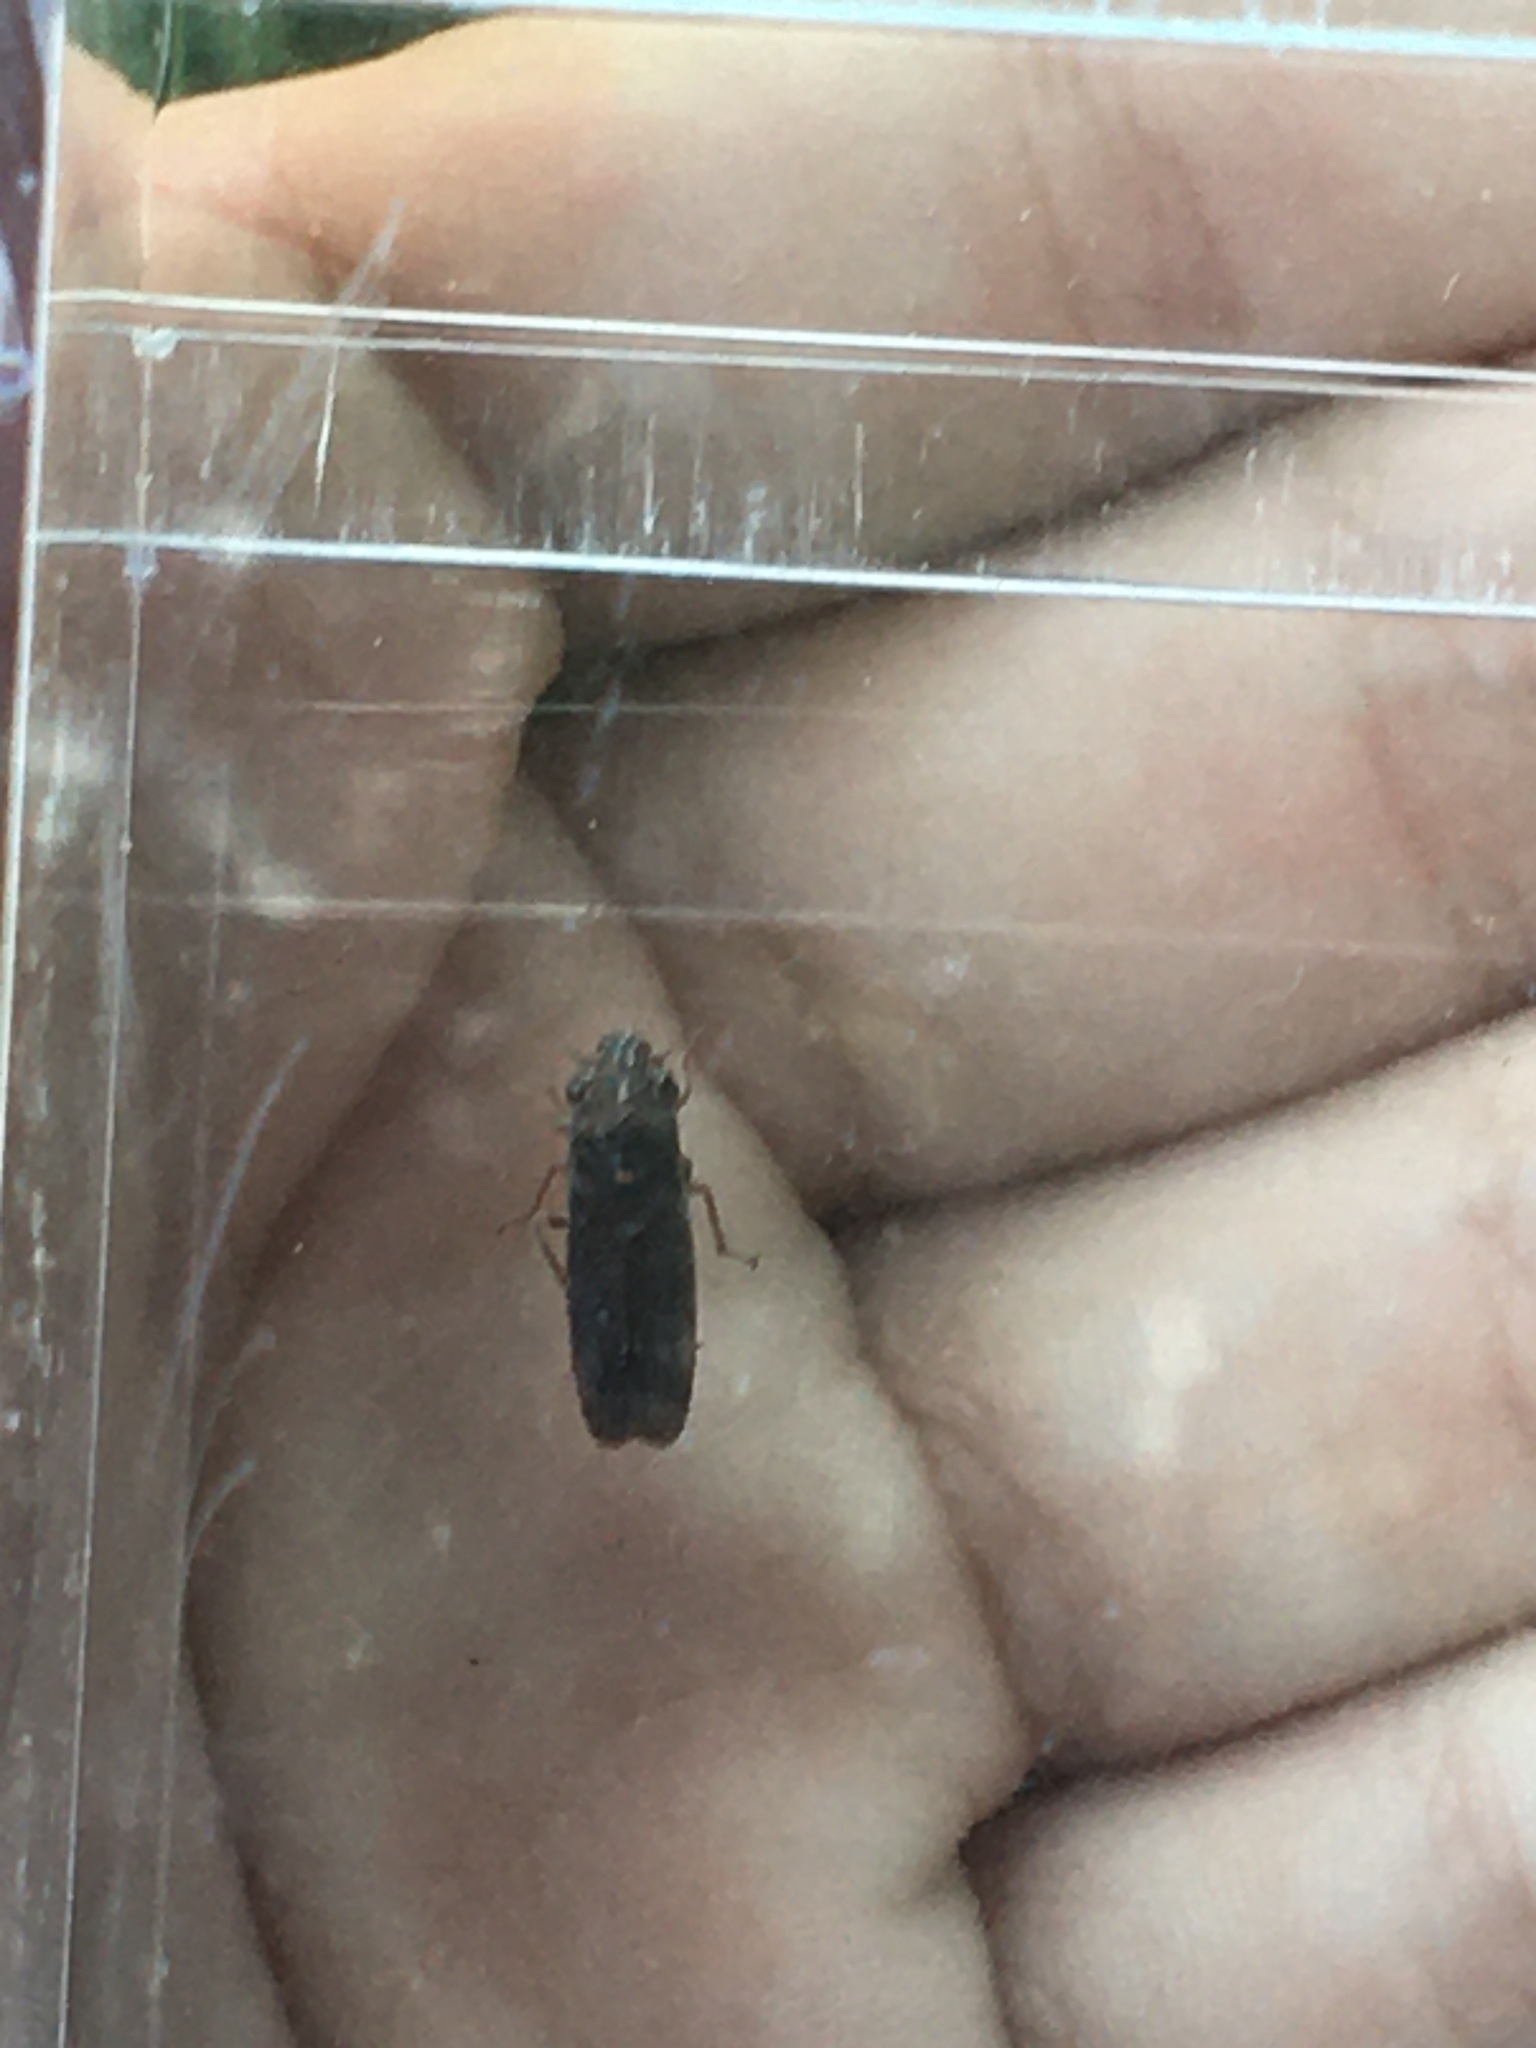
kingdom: Animalia
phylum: Arthropoda
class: Insecta
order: Hemiptera
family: Cicadellidae
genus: Paraulacizes
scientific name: Paraulacizes irrorata
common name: Speckled sharpshooter
